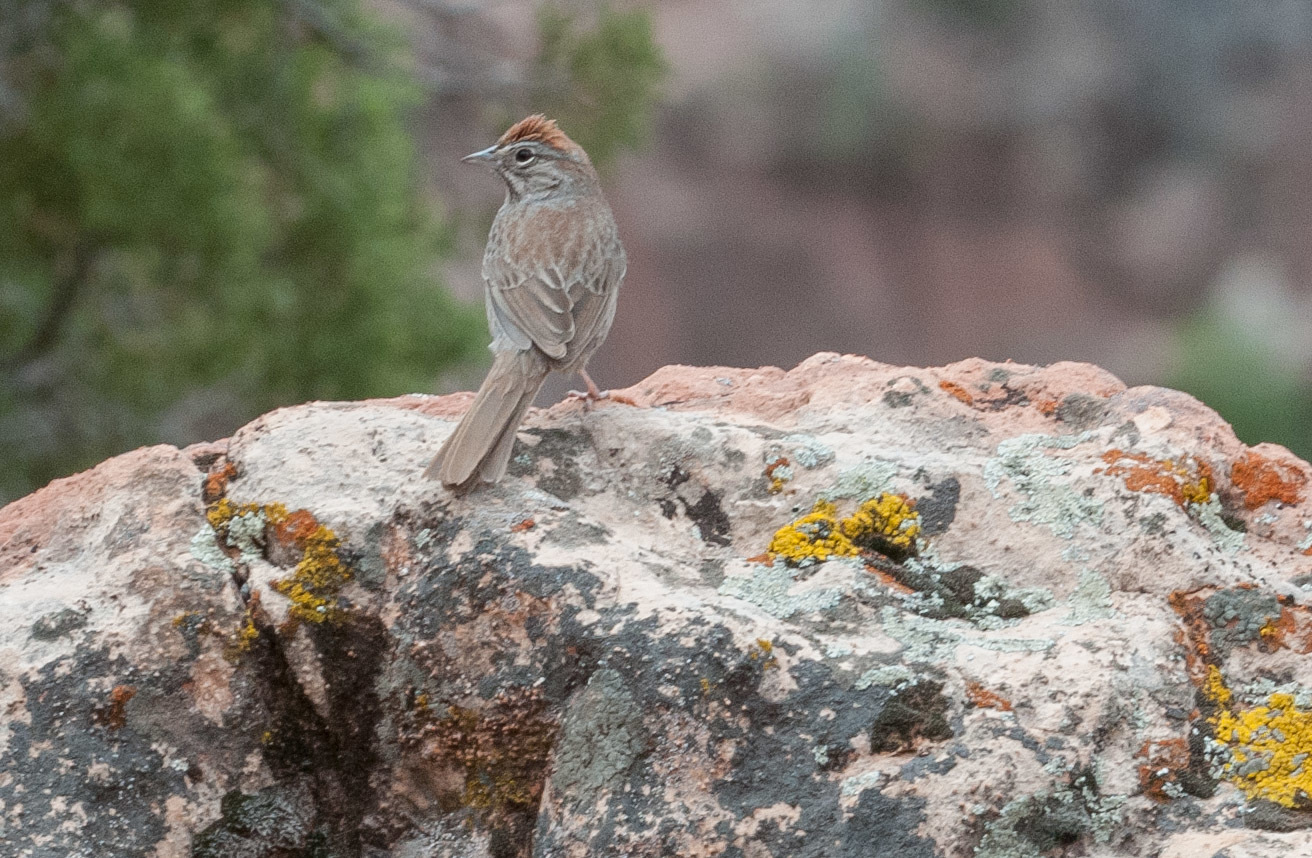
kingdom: Animalia
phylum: Chordata
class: Aves
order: Passeriformes
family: Passerellidae
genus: Aimophila
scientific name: Aimophila ruficeps
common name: Rufous-crowned sparrow
